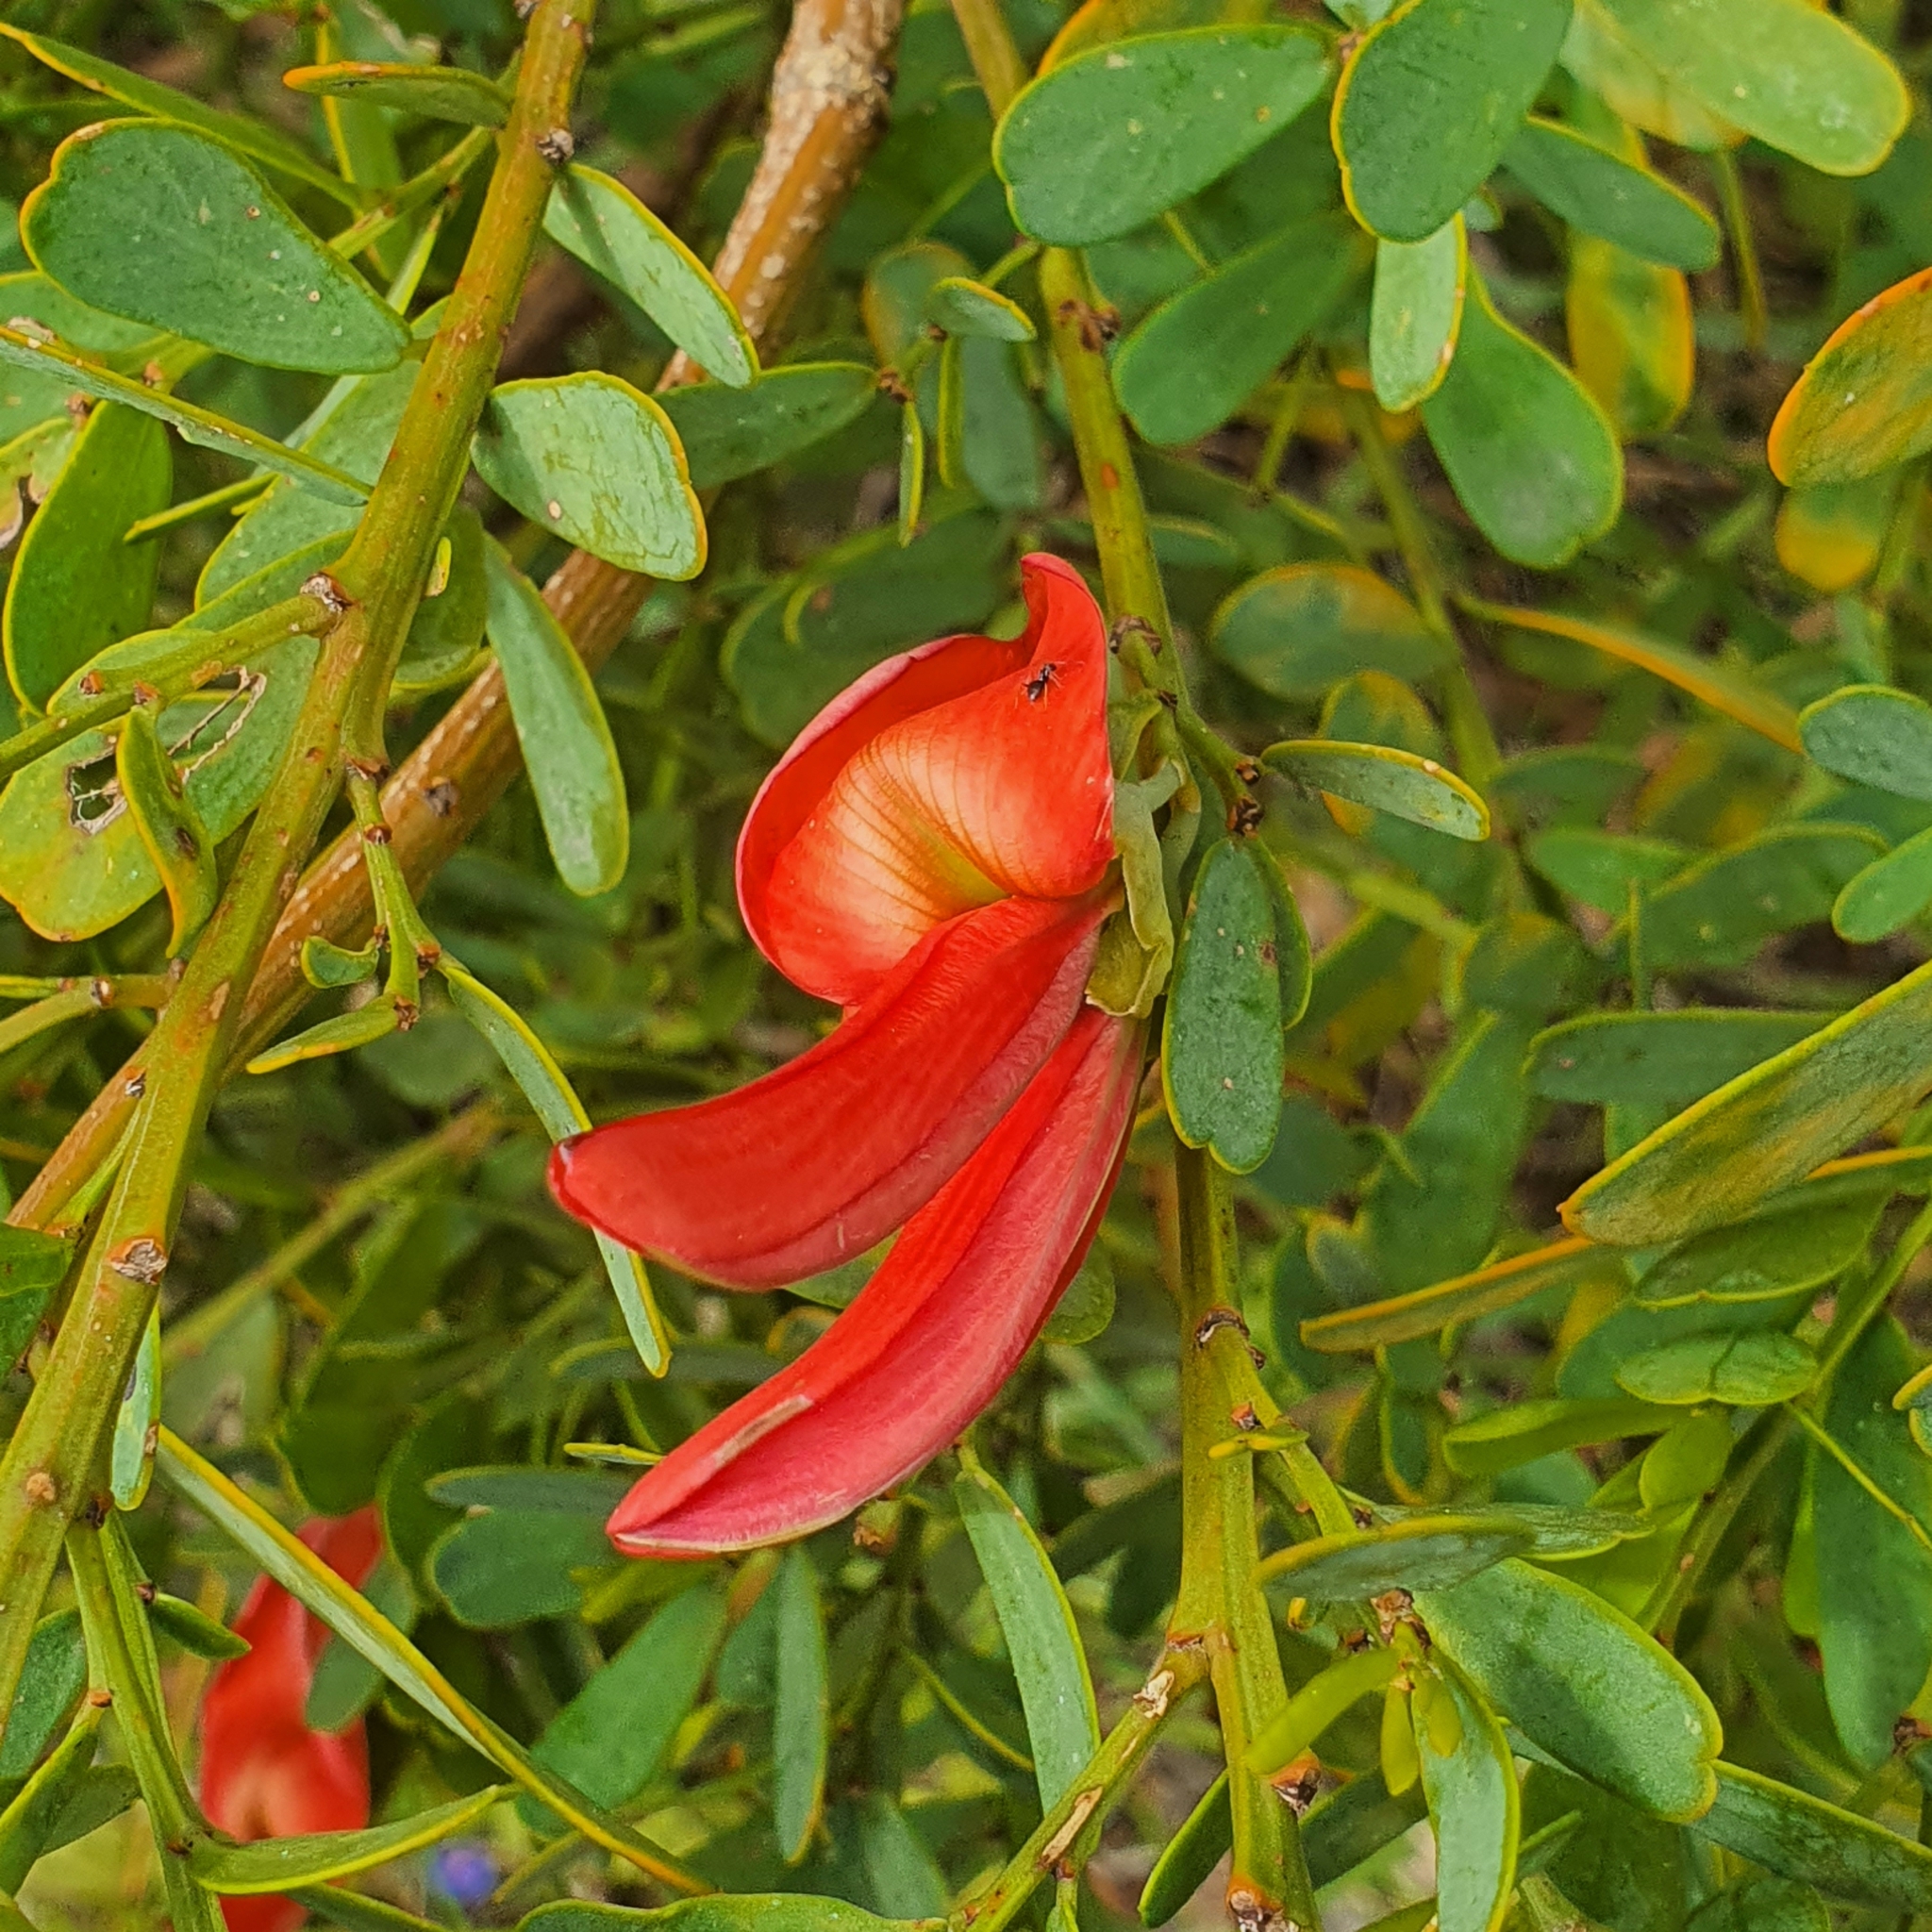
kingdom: Plantae
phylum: Tracheophyta
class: Magnoliopsida
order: Fabales
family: Fabaceae
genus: Templetonia
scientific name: Templetonia retusa
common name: Cockies'-tongue
